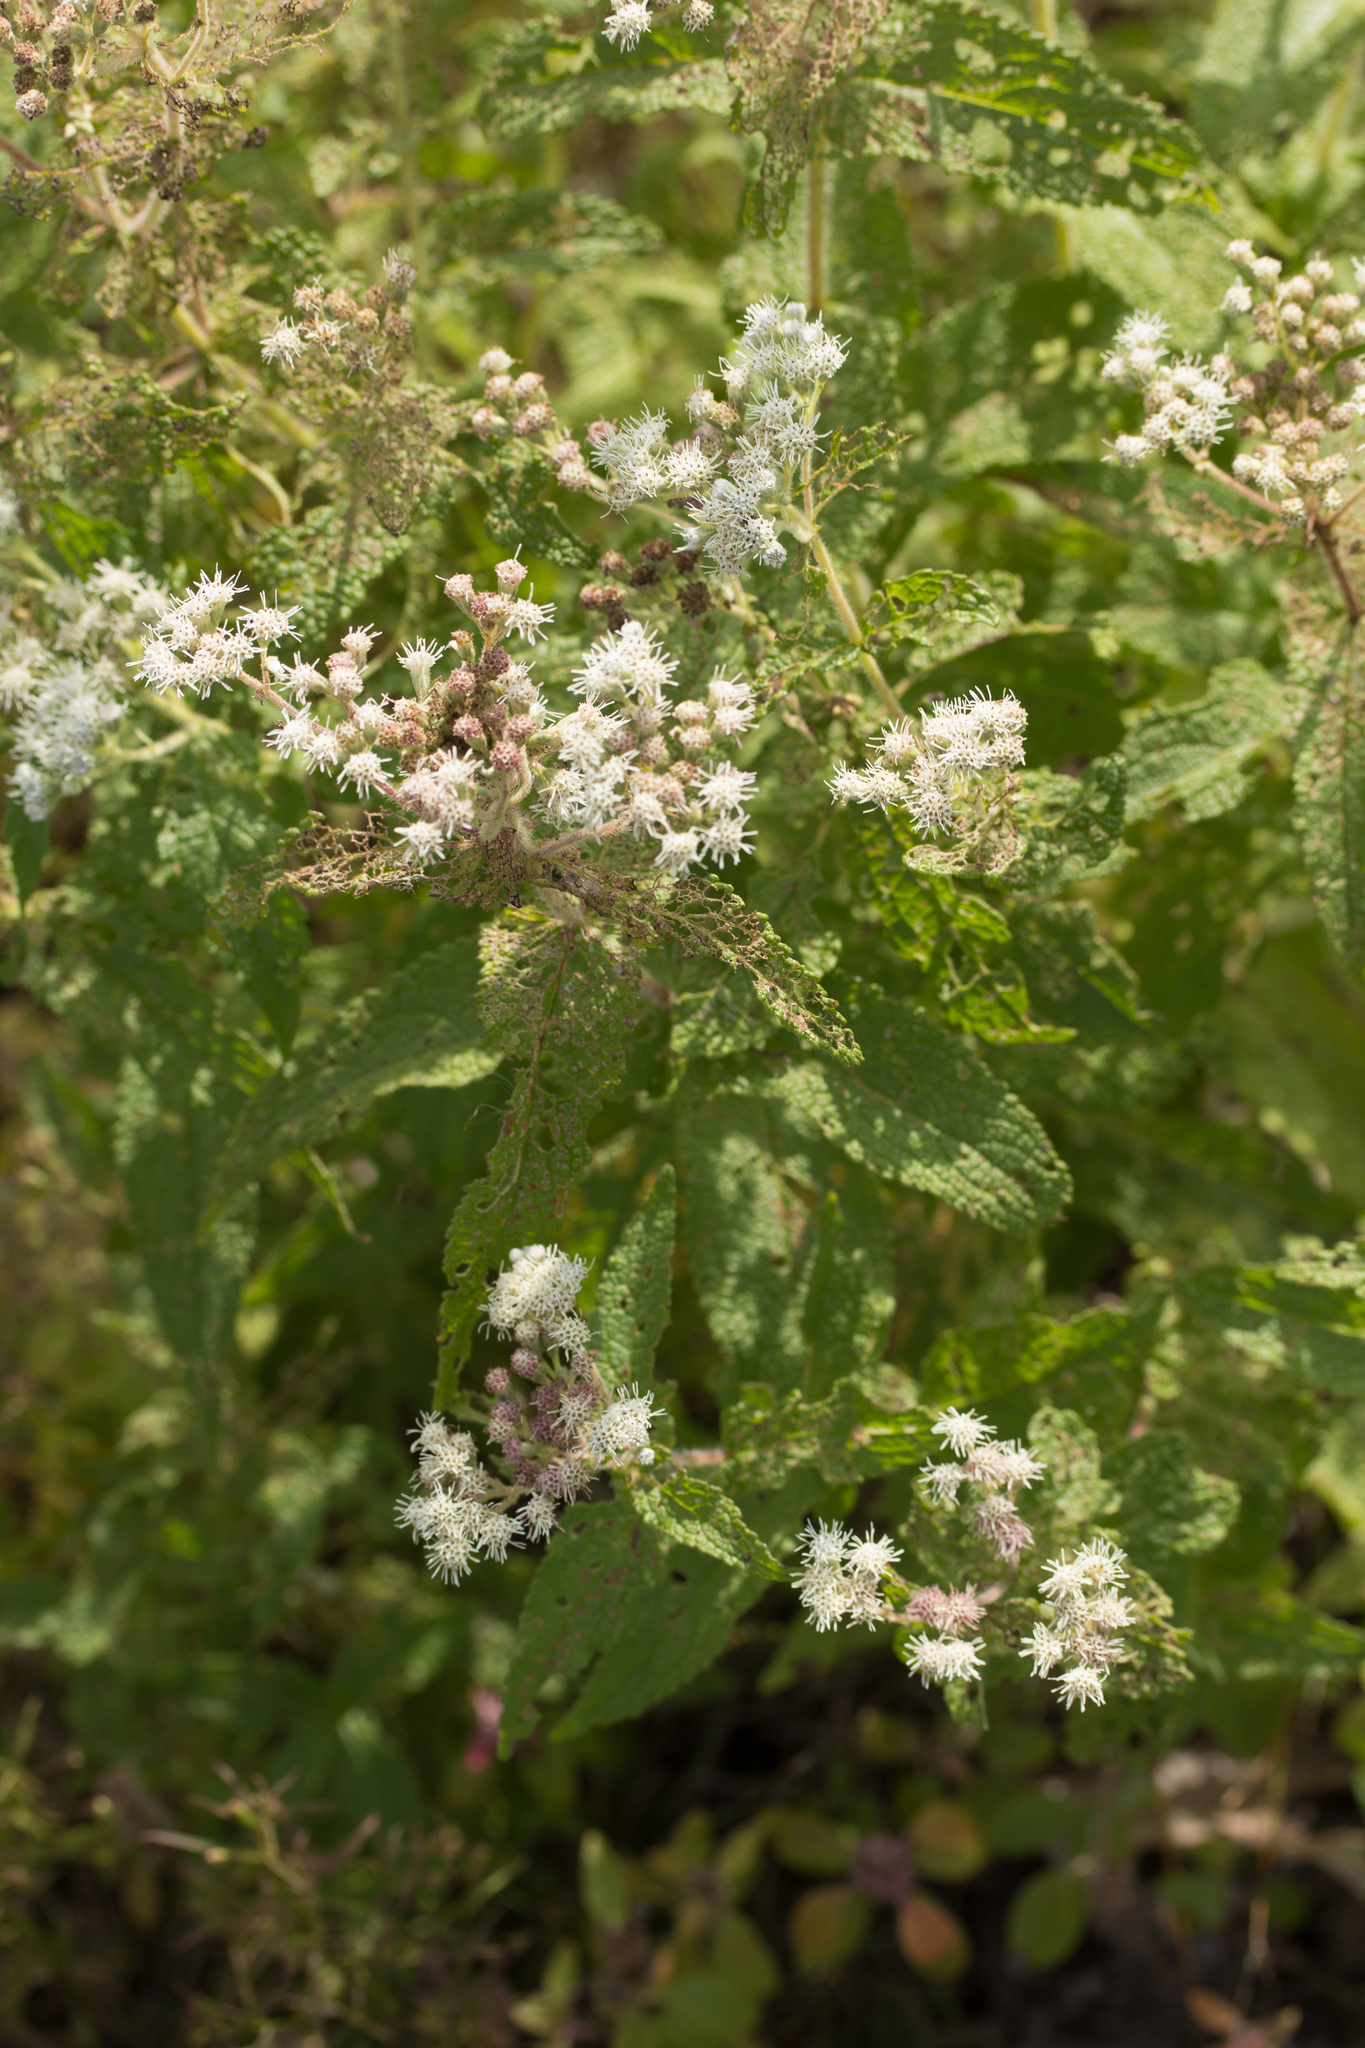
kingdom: Plantae
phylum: Tracheophyta
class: Magnoliopsida
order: Asterales
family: Asteraceae
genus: Eupatorium
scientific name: Eupatorium perfoliatum
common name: Boneset
